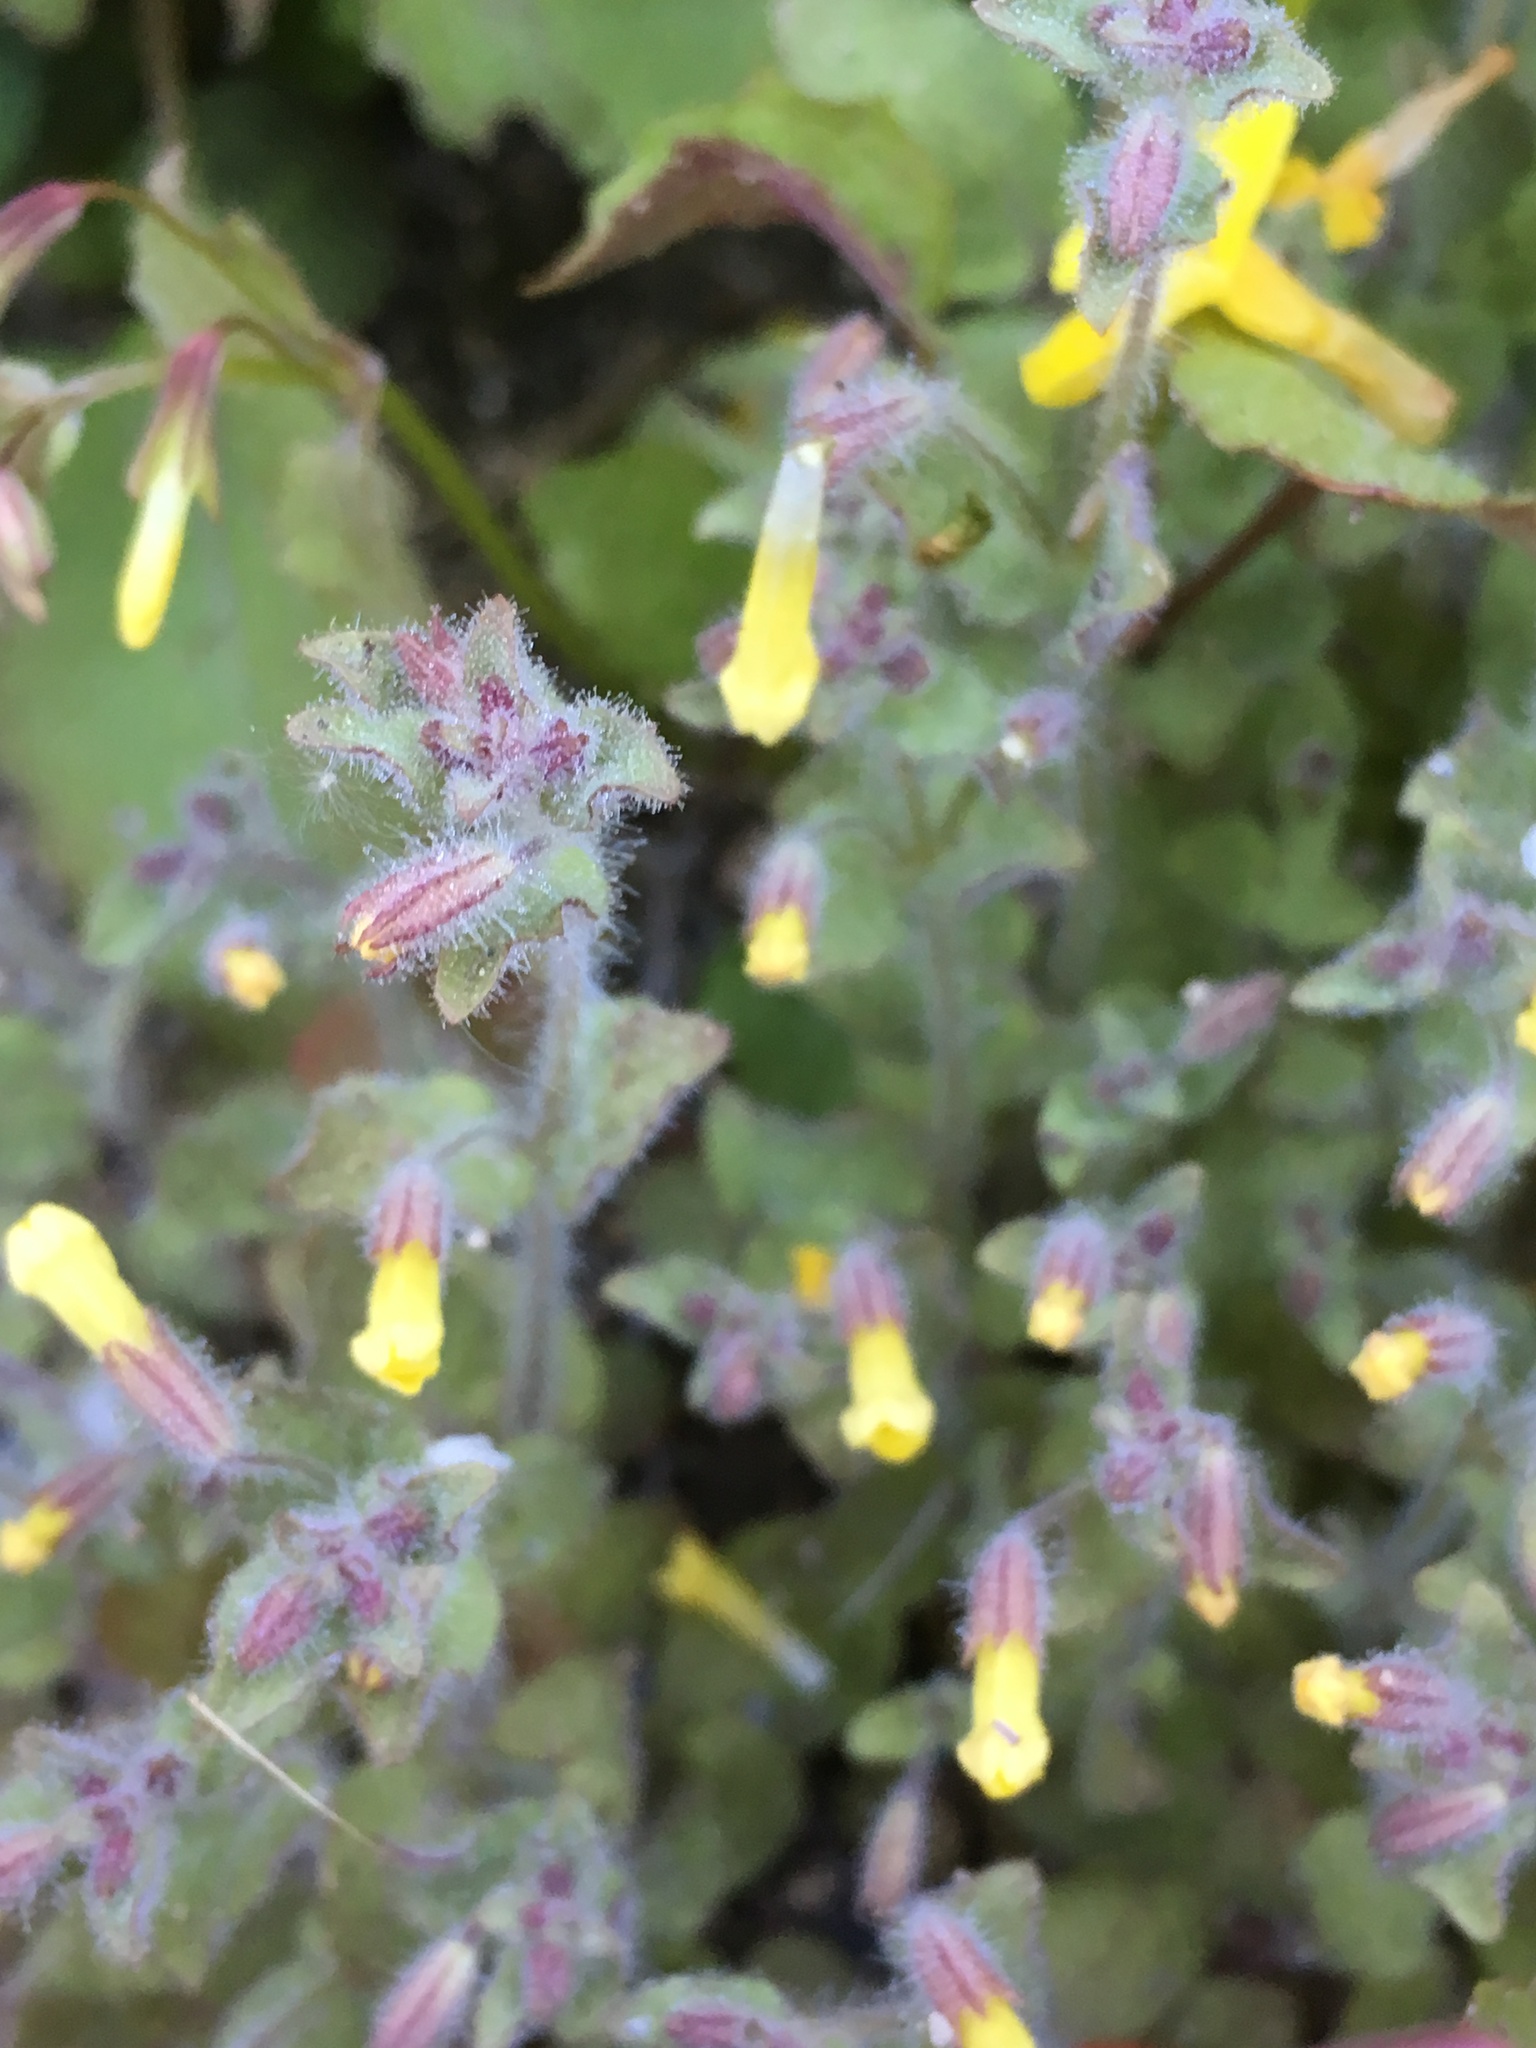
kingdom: Plantae
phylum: Tracheophyta
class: Magnoliopsida
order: Lamiales
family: Phrymaceae
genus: Erythranthe
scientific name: Erythranthe floribunda
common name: Floriferous monkeyflower
